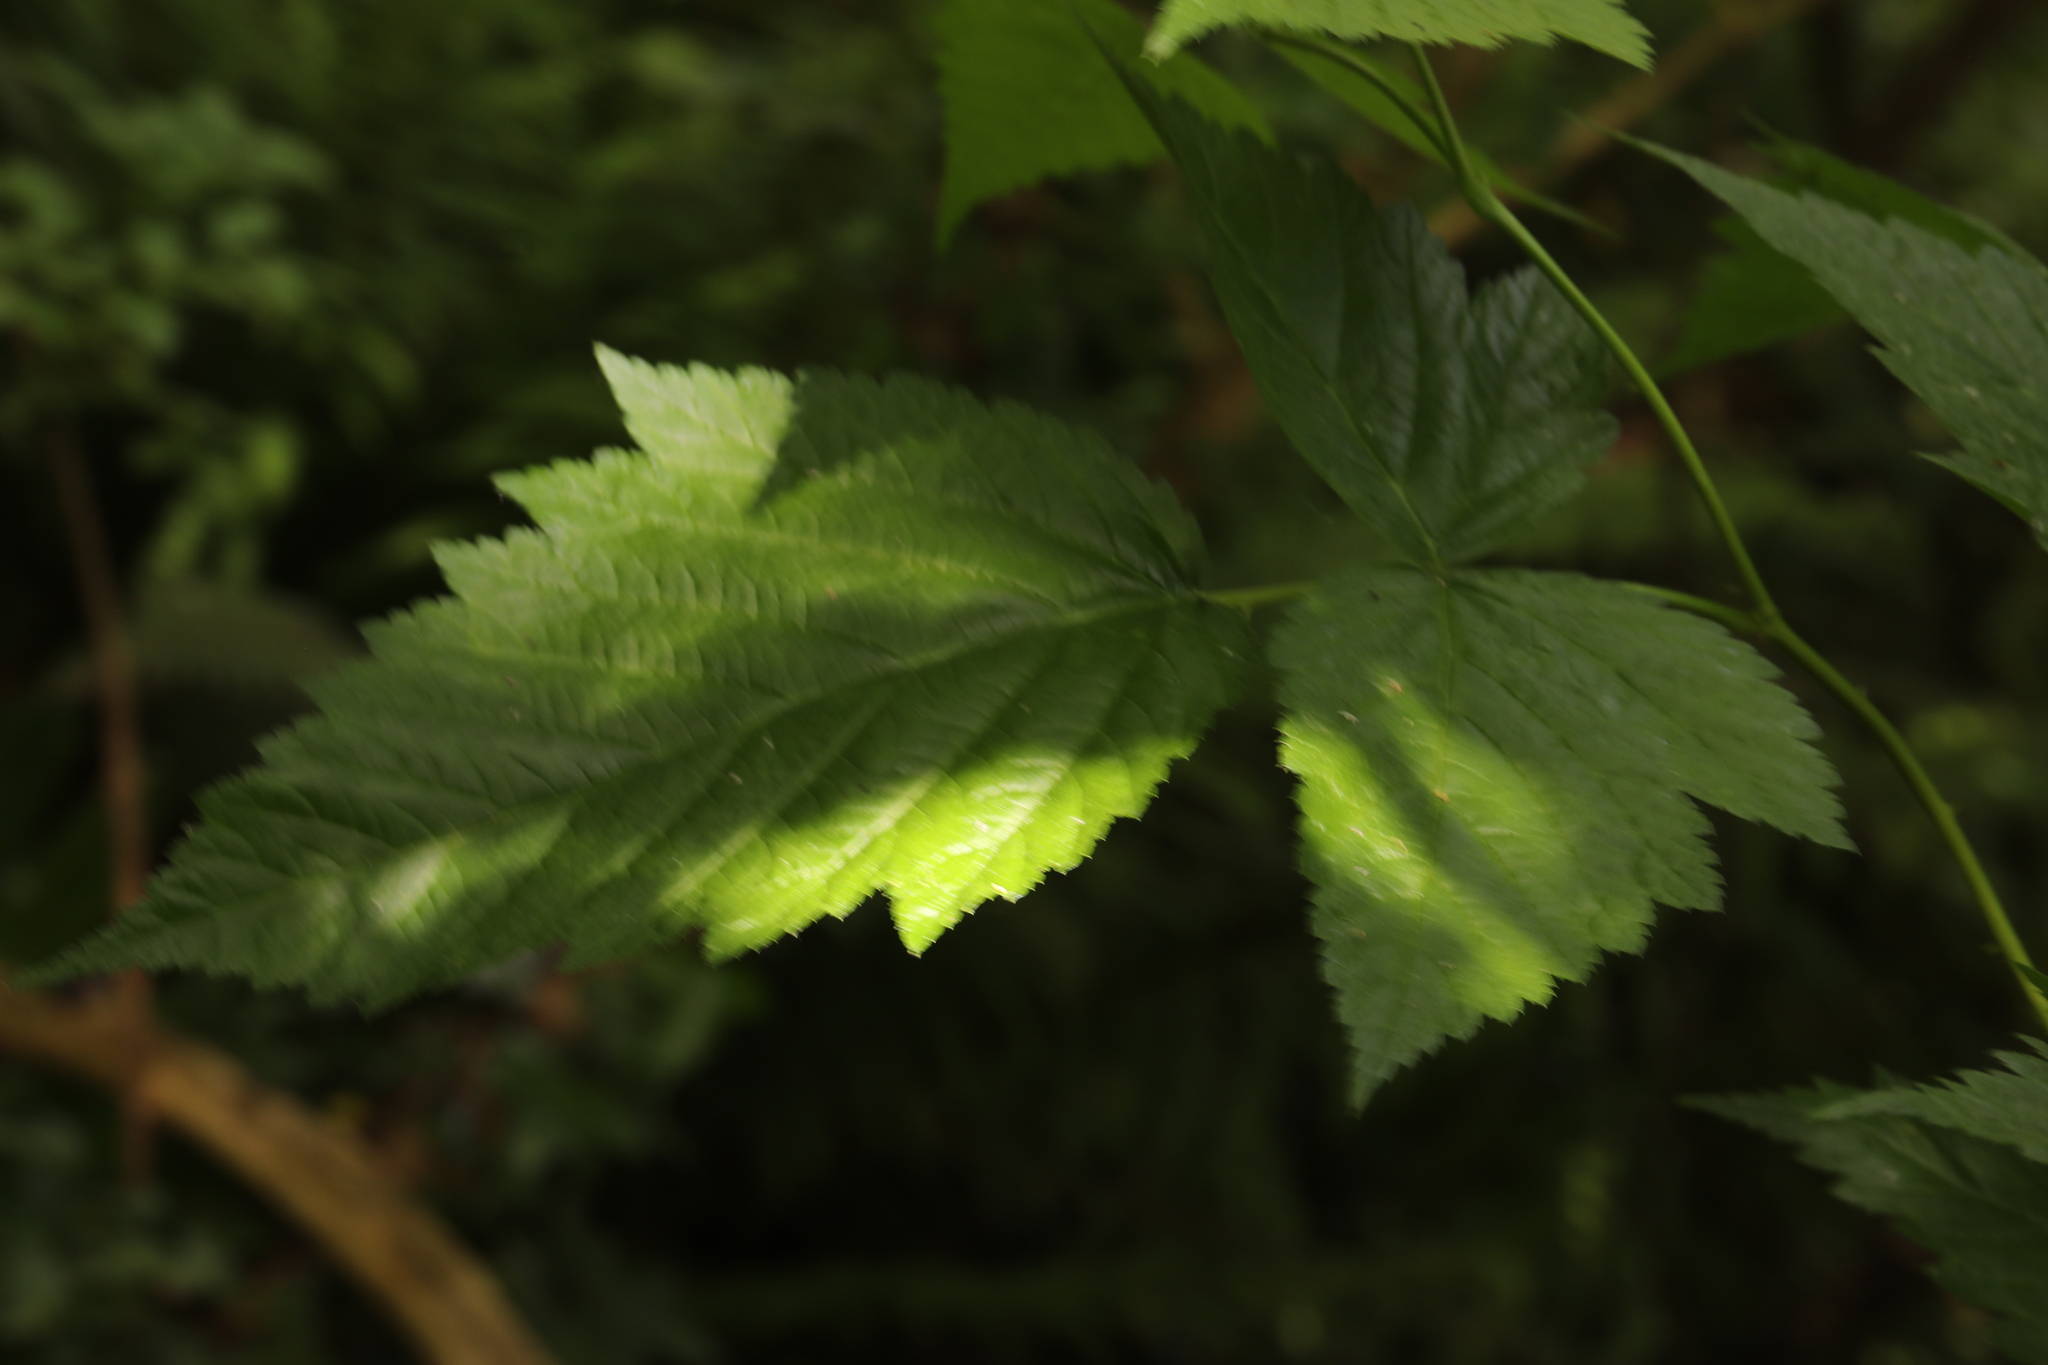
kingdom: Plantae
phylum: Tracheophyta
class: Magnoliopsida
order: Rosales
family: Rosaceae
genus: Rubus
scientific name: Rubus spectabilis
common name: Salmonberry
